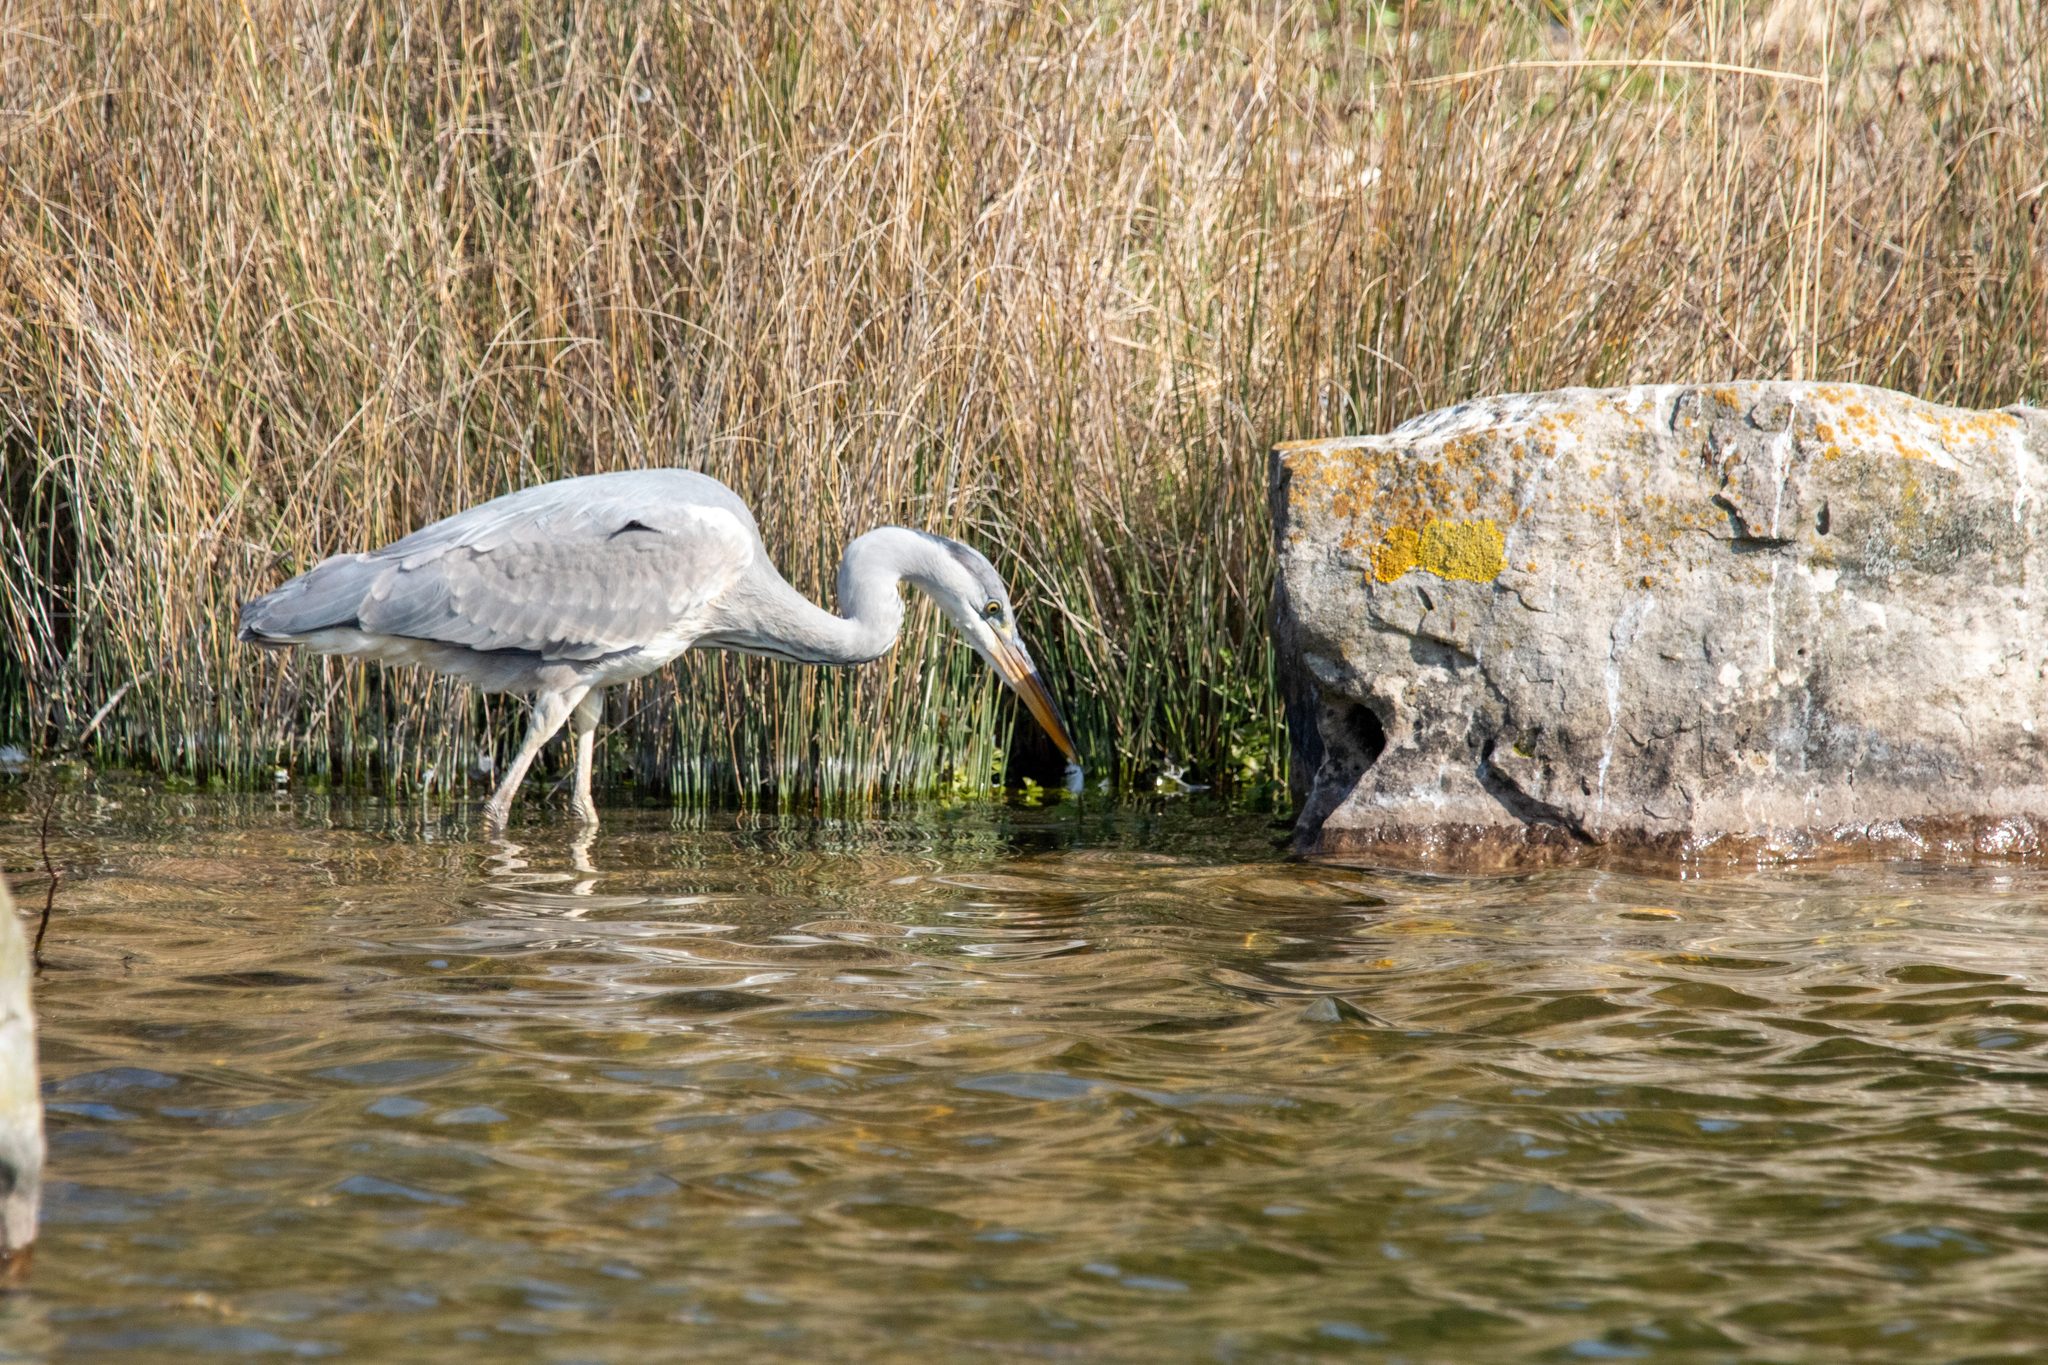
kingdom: Animalia
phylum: Chordata
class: Aves
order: Pelecaniformes
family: Ardeidae
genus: Ardea
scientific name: Ardea cinerea
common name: Grey heron
